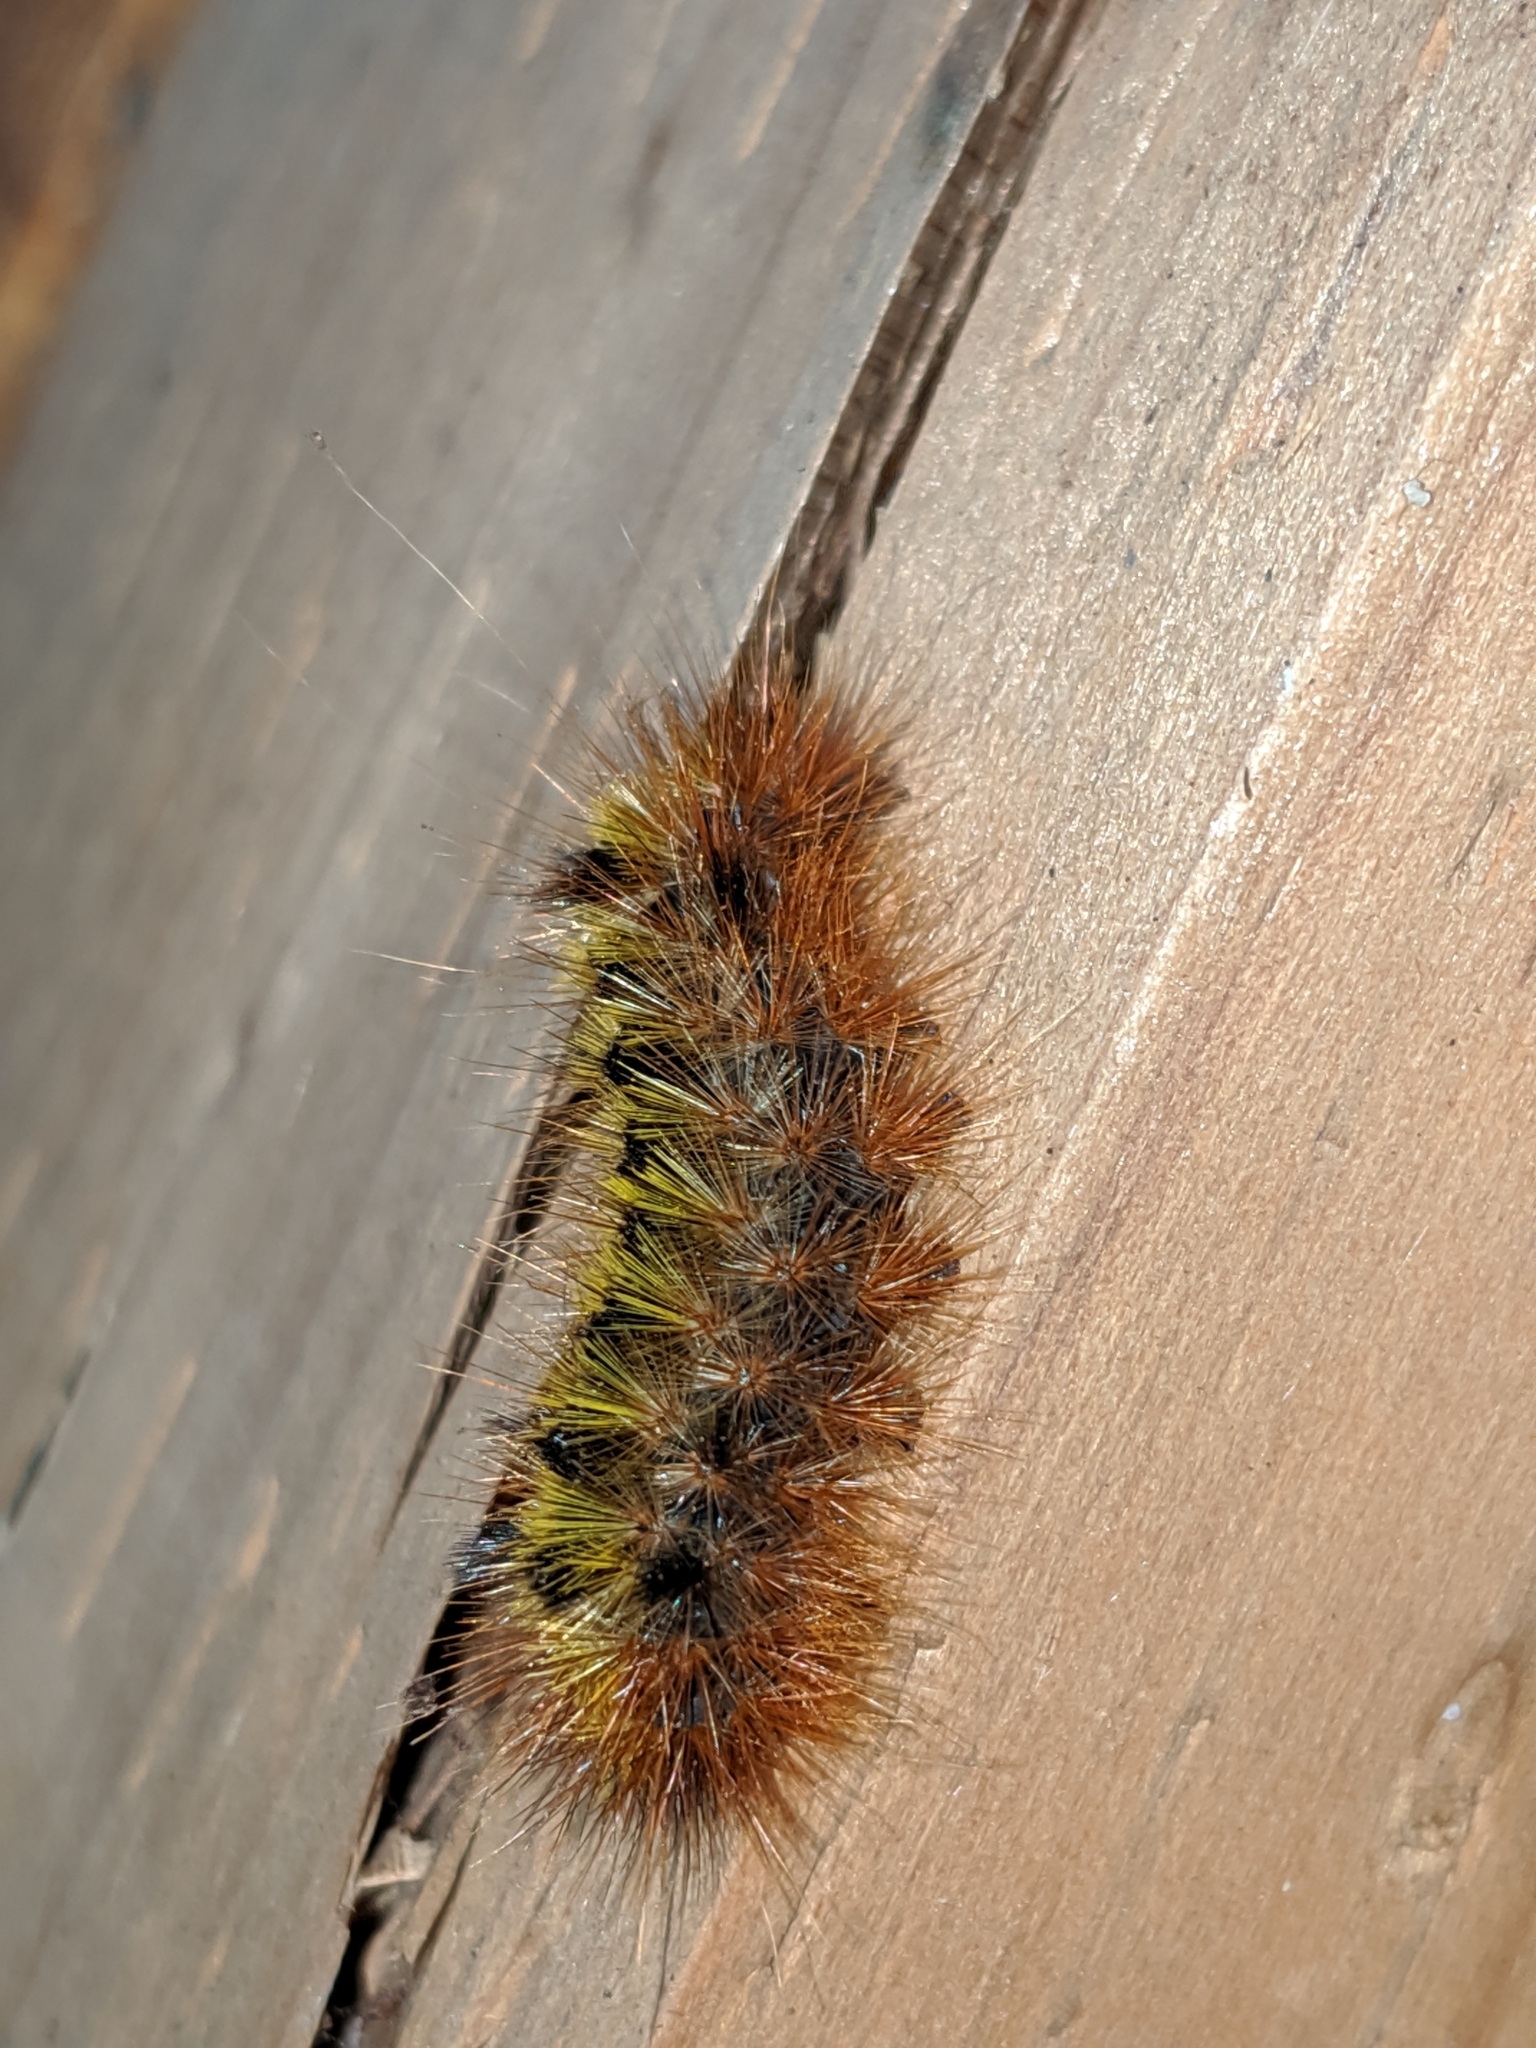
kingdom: Animalia
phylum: Arthropoda
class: Insecta
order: Lepidoptera
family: Erebidae
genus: Lophocampa
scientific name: Lophocampa argentata
